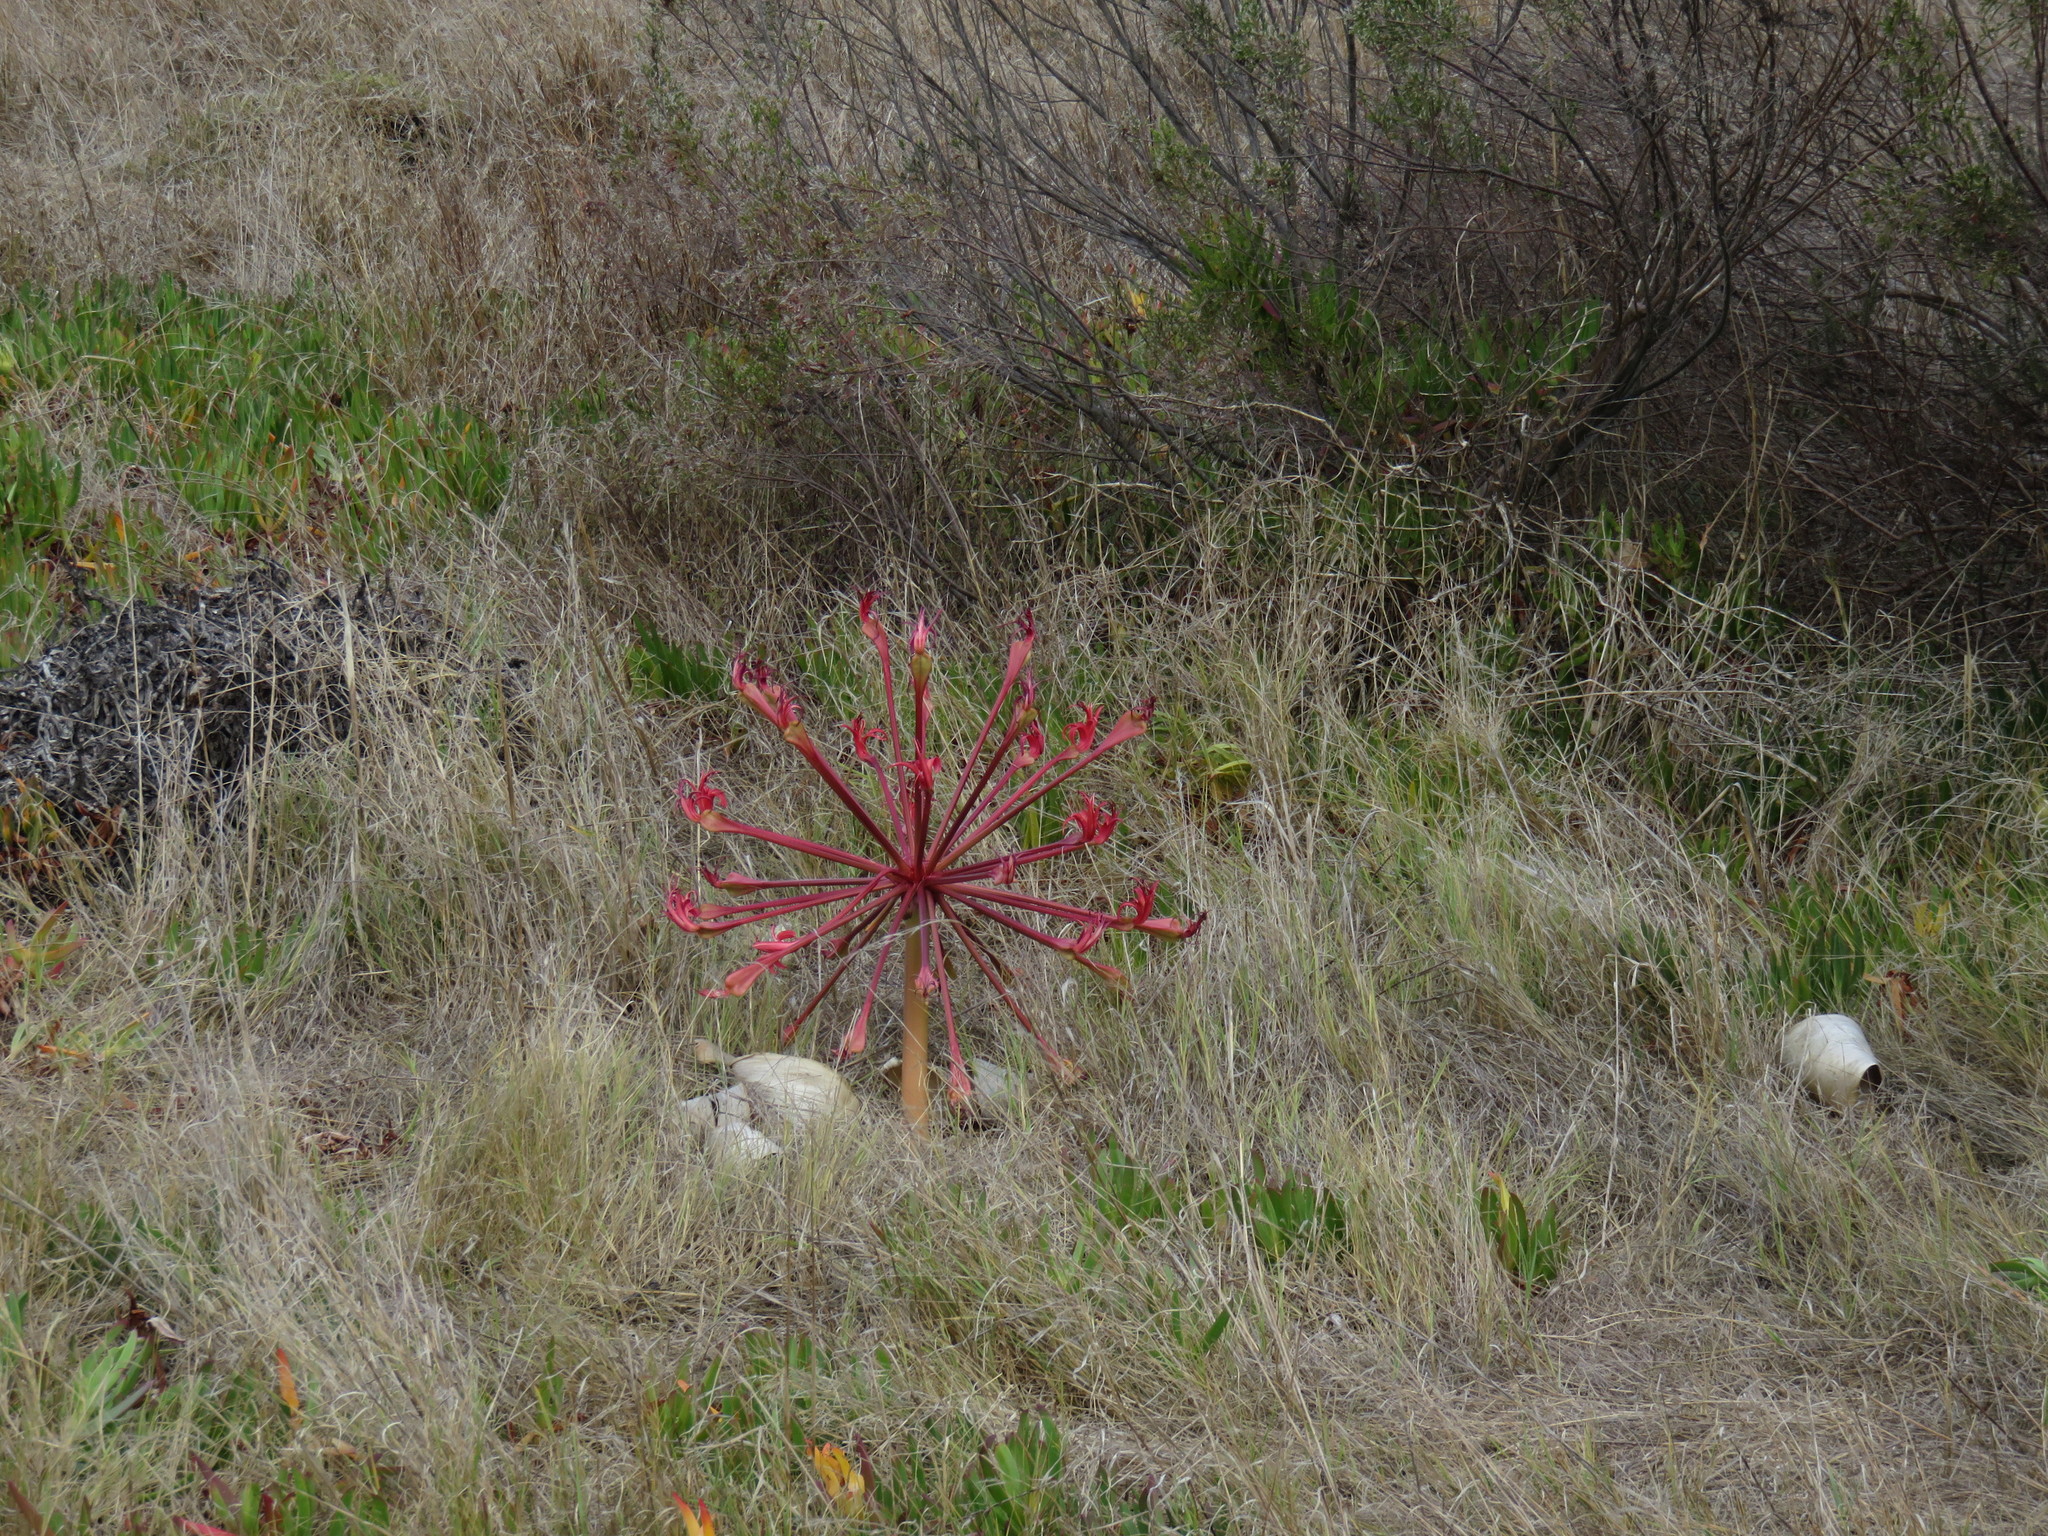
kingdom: Plantae
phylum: Tracheophyta
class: Liliopsida
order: Asparagales
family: Amaryllidaceae
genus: Brunsvigia
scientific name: Brunsvigia orientalis
